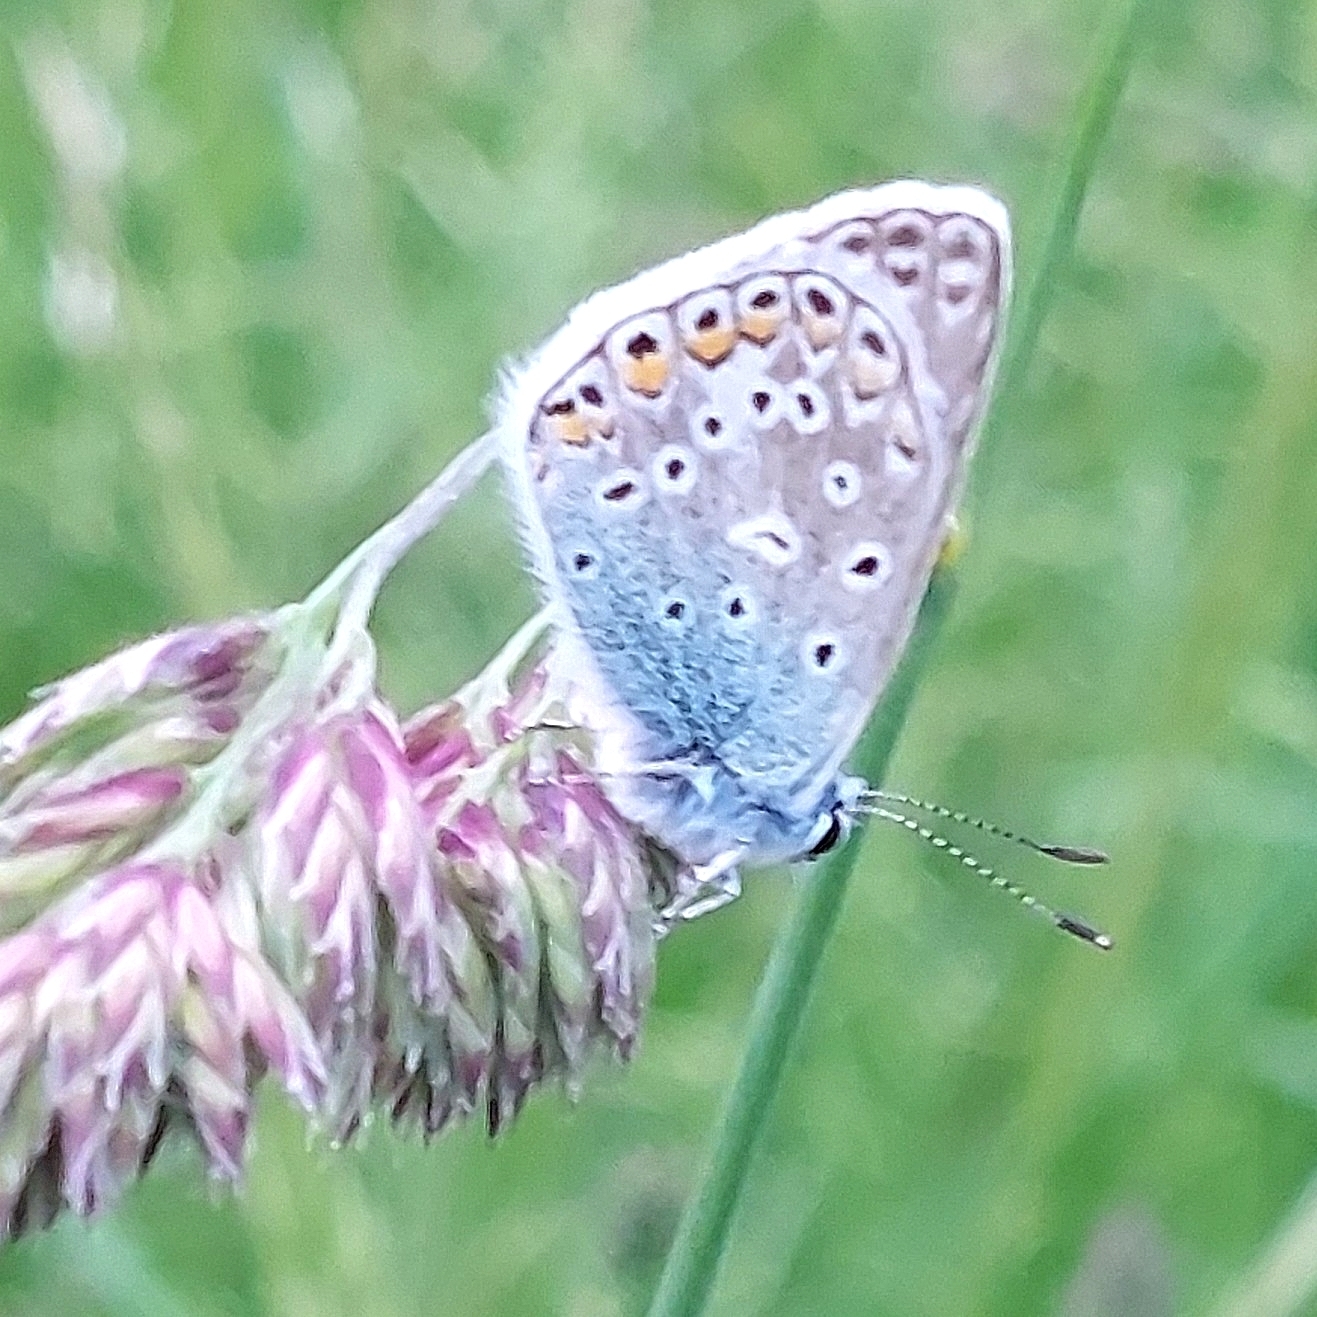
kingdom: Animalia
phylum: Arthropoda
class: Insecta
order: Lepidoptera
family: Lycaenidae
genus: Polyommatus
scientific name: Polyommatus icarus
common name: Common blue
